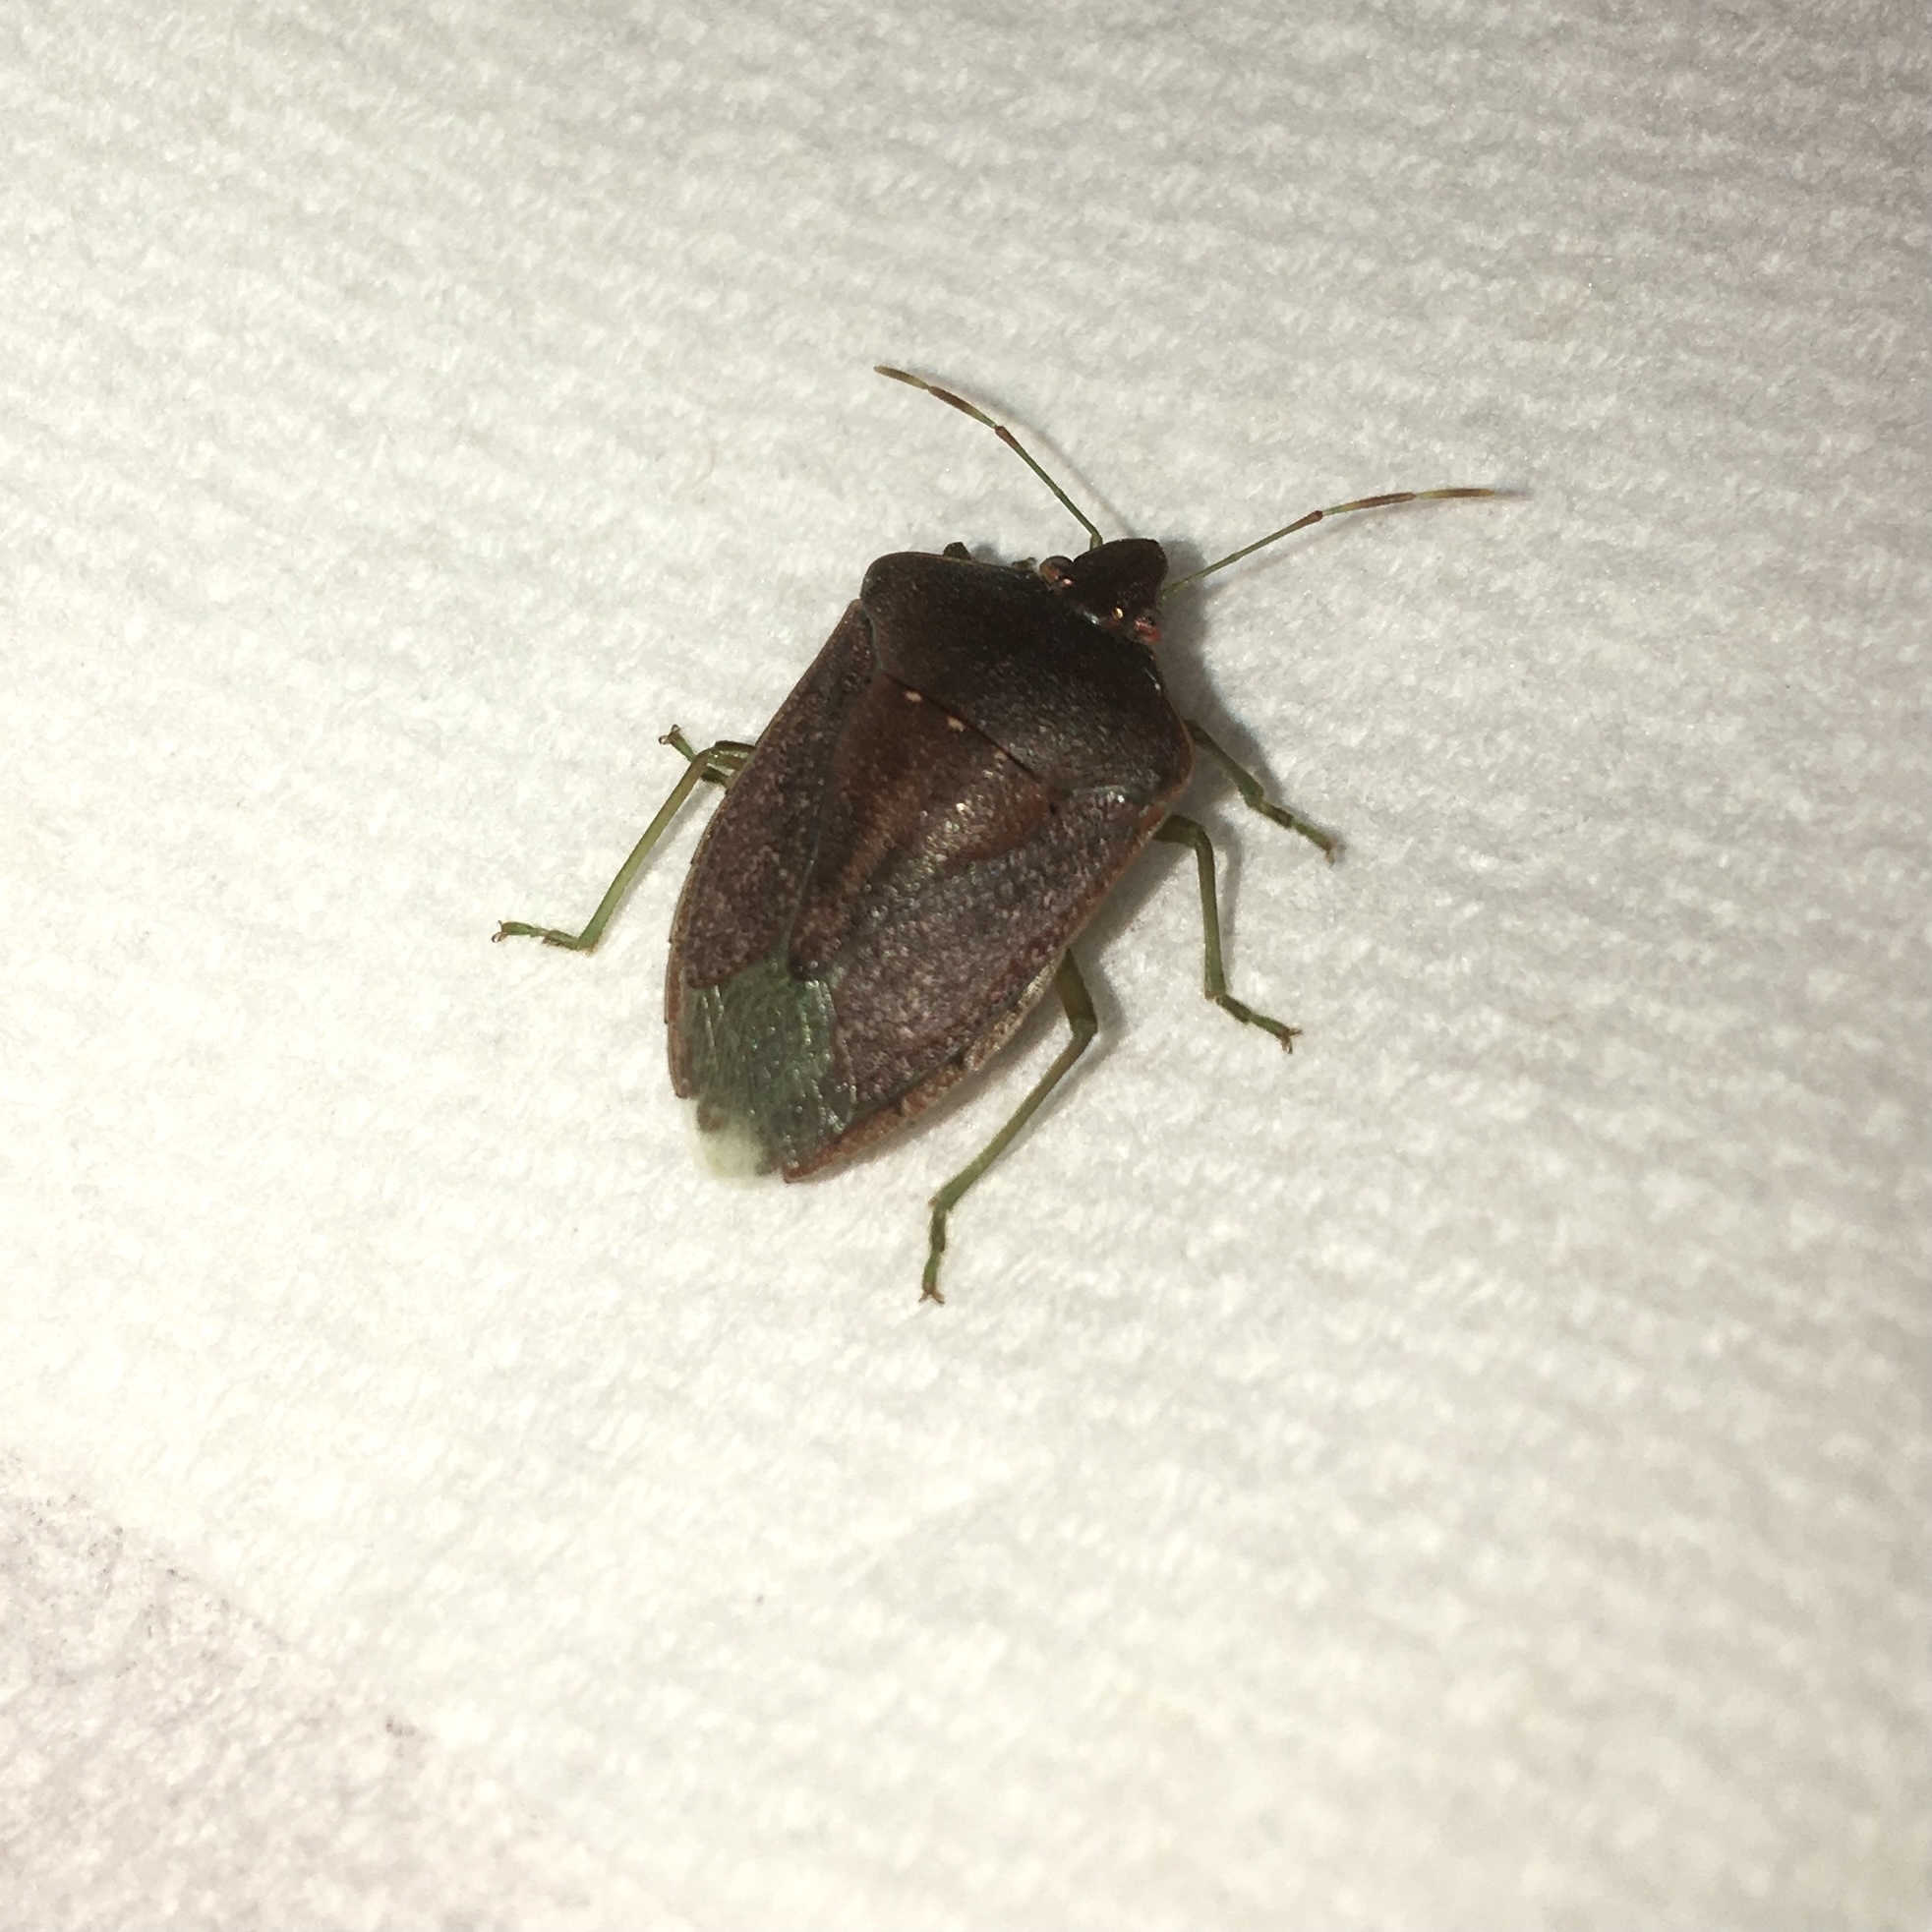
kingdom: Animalia
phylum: Arthropoda
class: Insecta
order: Hemiptera
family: Pentatomidae
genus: Nezara
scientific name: Nezara viridula
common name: Southern green stink bug
